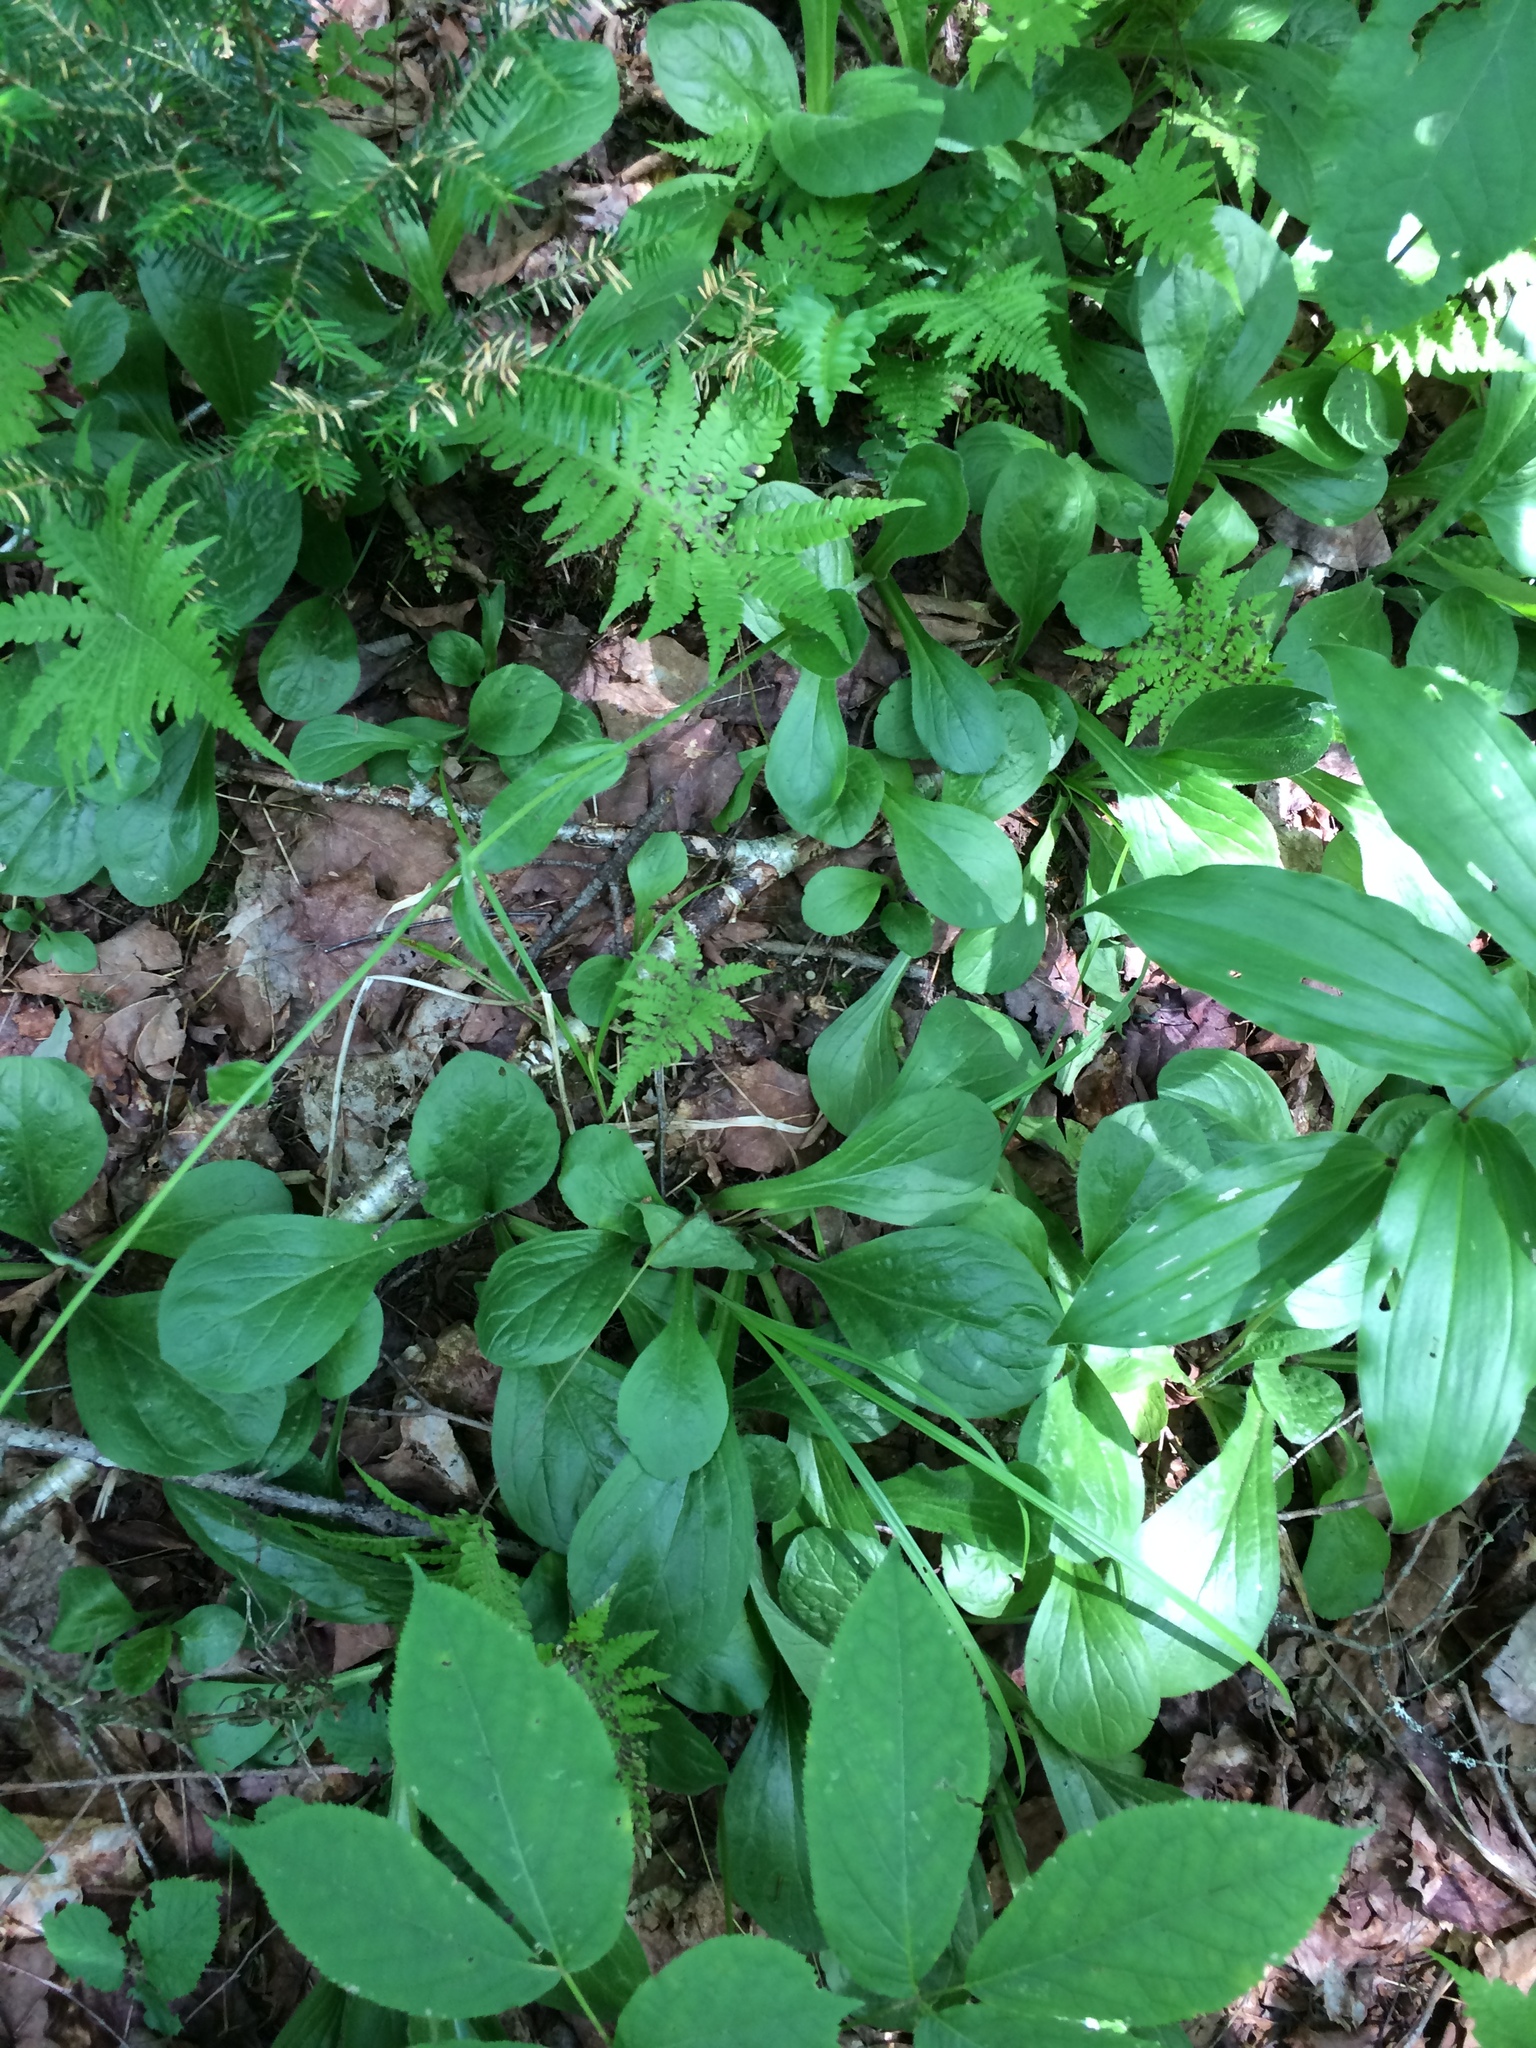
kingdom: Plantae
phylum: Tracheophyta
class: Magnoliopsida
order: Asterales
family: Asteraceae
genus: Erigeron
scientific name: Erigeron pulchellus
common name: Hairy fleabane
